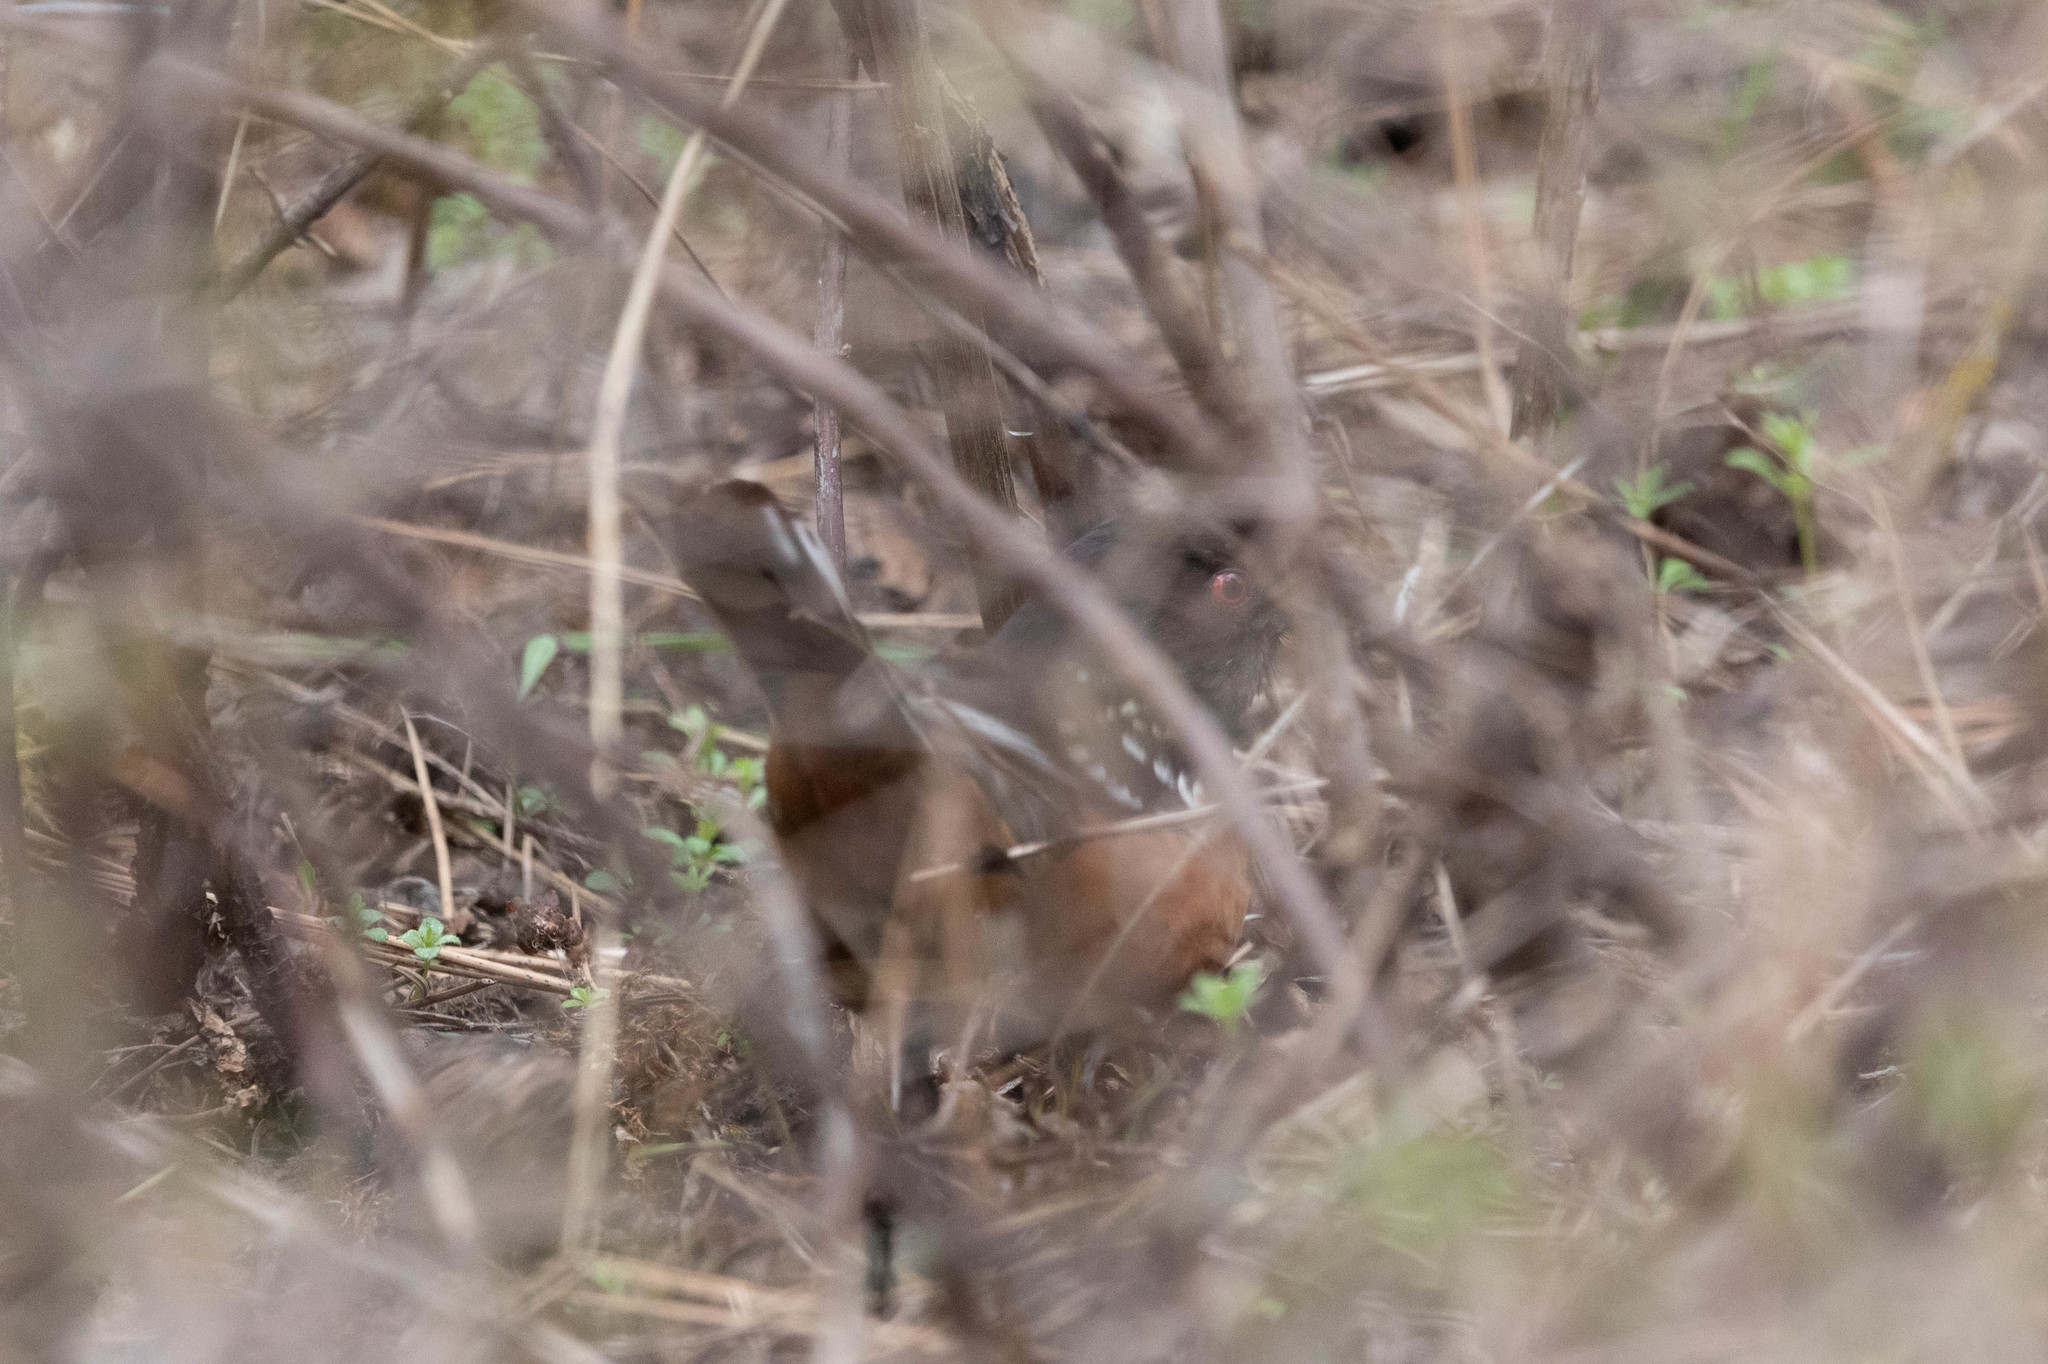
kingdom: Animalia
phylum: Chordata
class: Aves
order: Passeriformes
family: Passerellidae
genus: Pipilo
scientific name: Pipilo maculatus
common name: Spotted towhee
